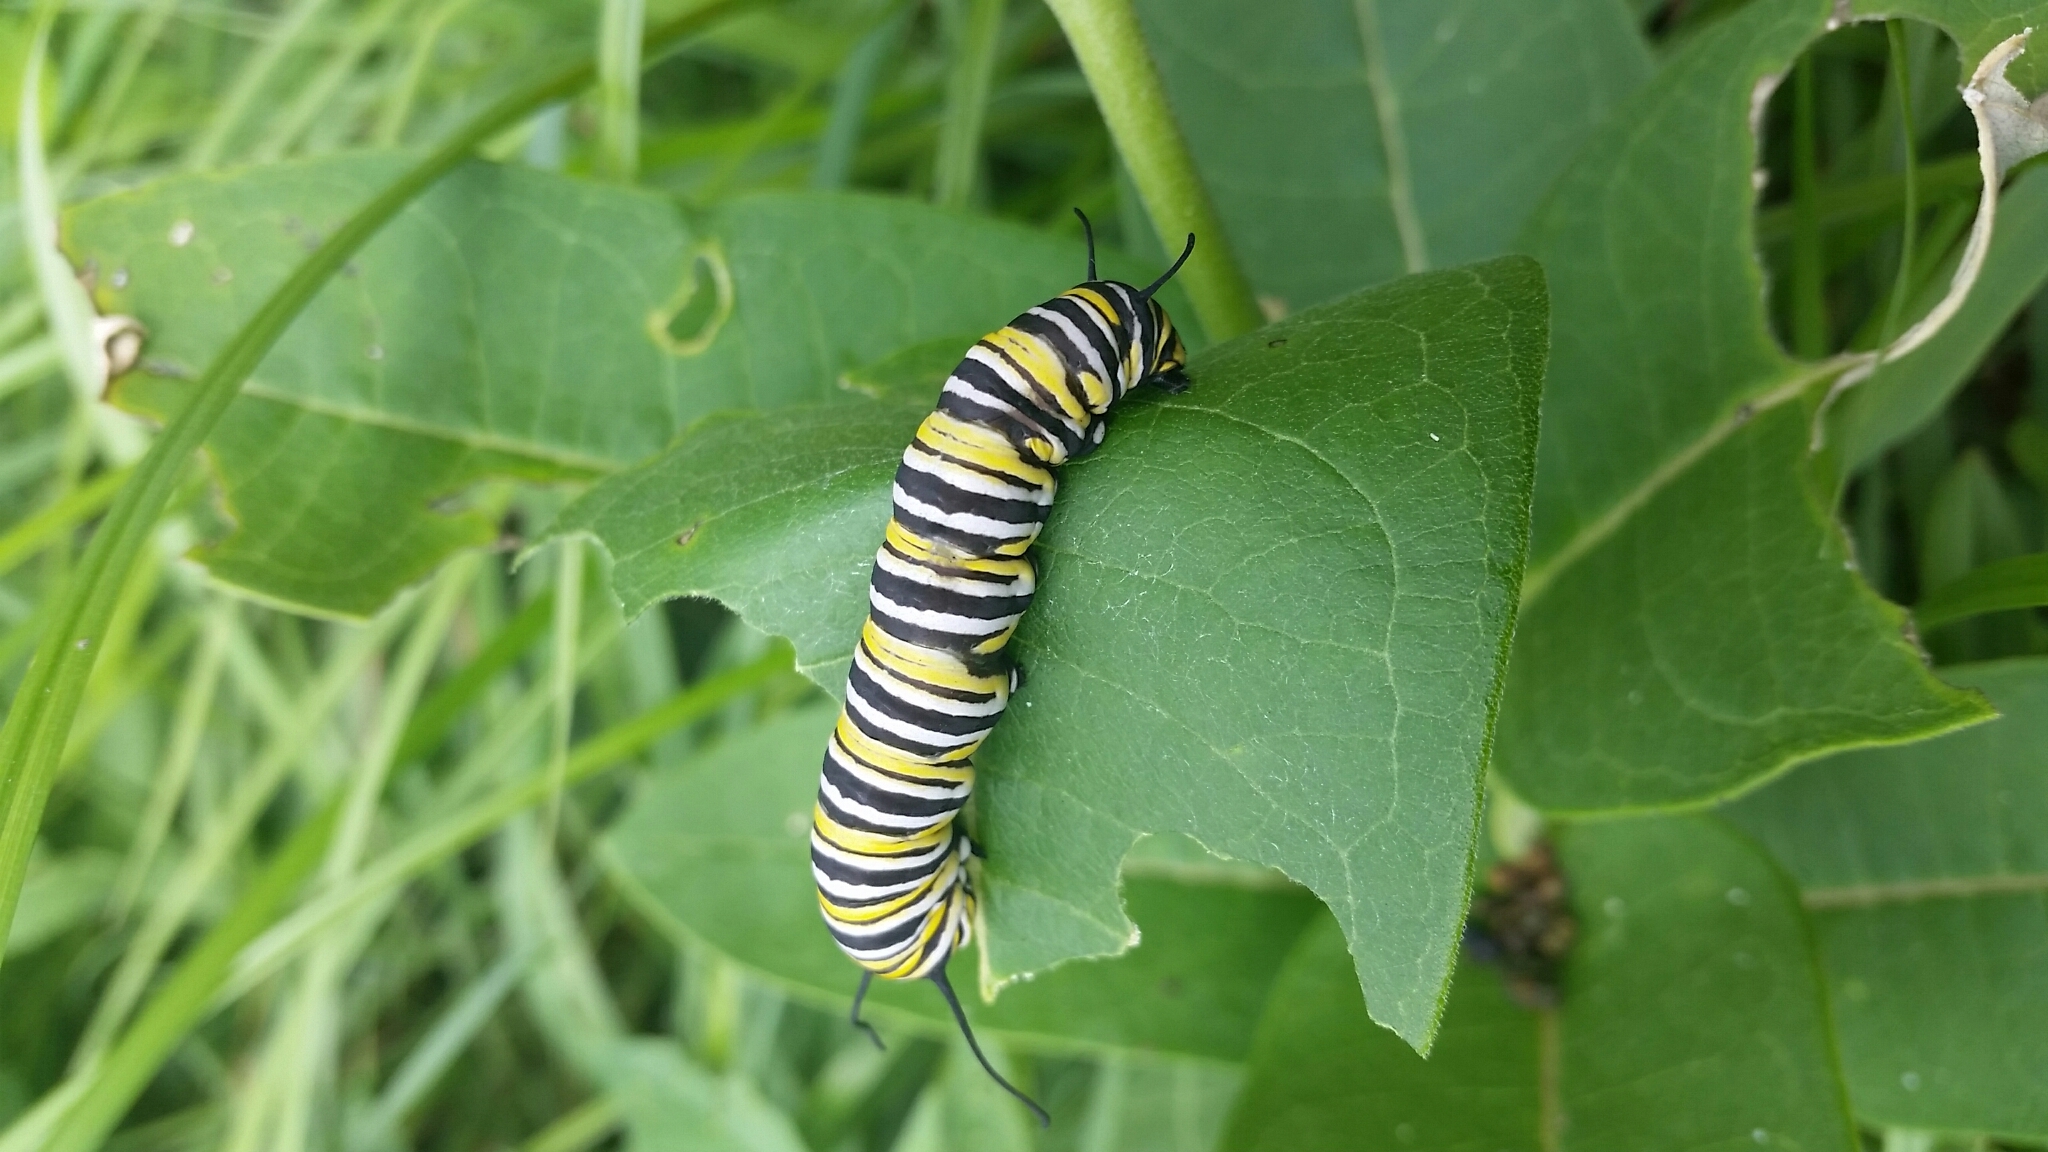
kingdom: Animalia
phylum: Arthropoda
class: Insecta
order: Lepidoptera
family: Nymphalidae
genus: Danaus
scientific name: Danaus plexippus
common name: Monarch
